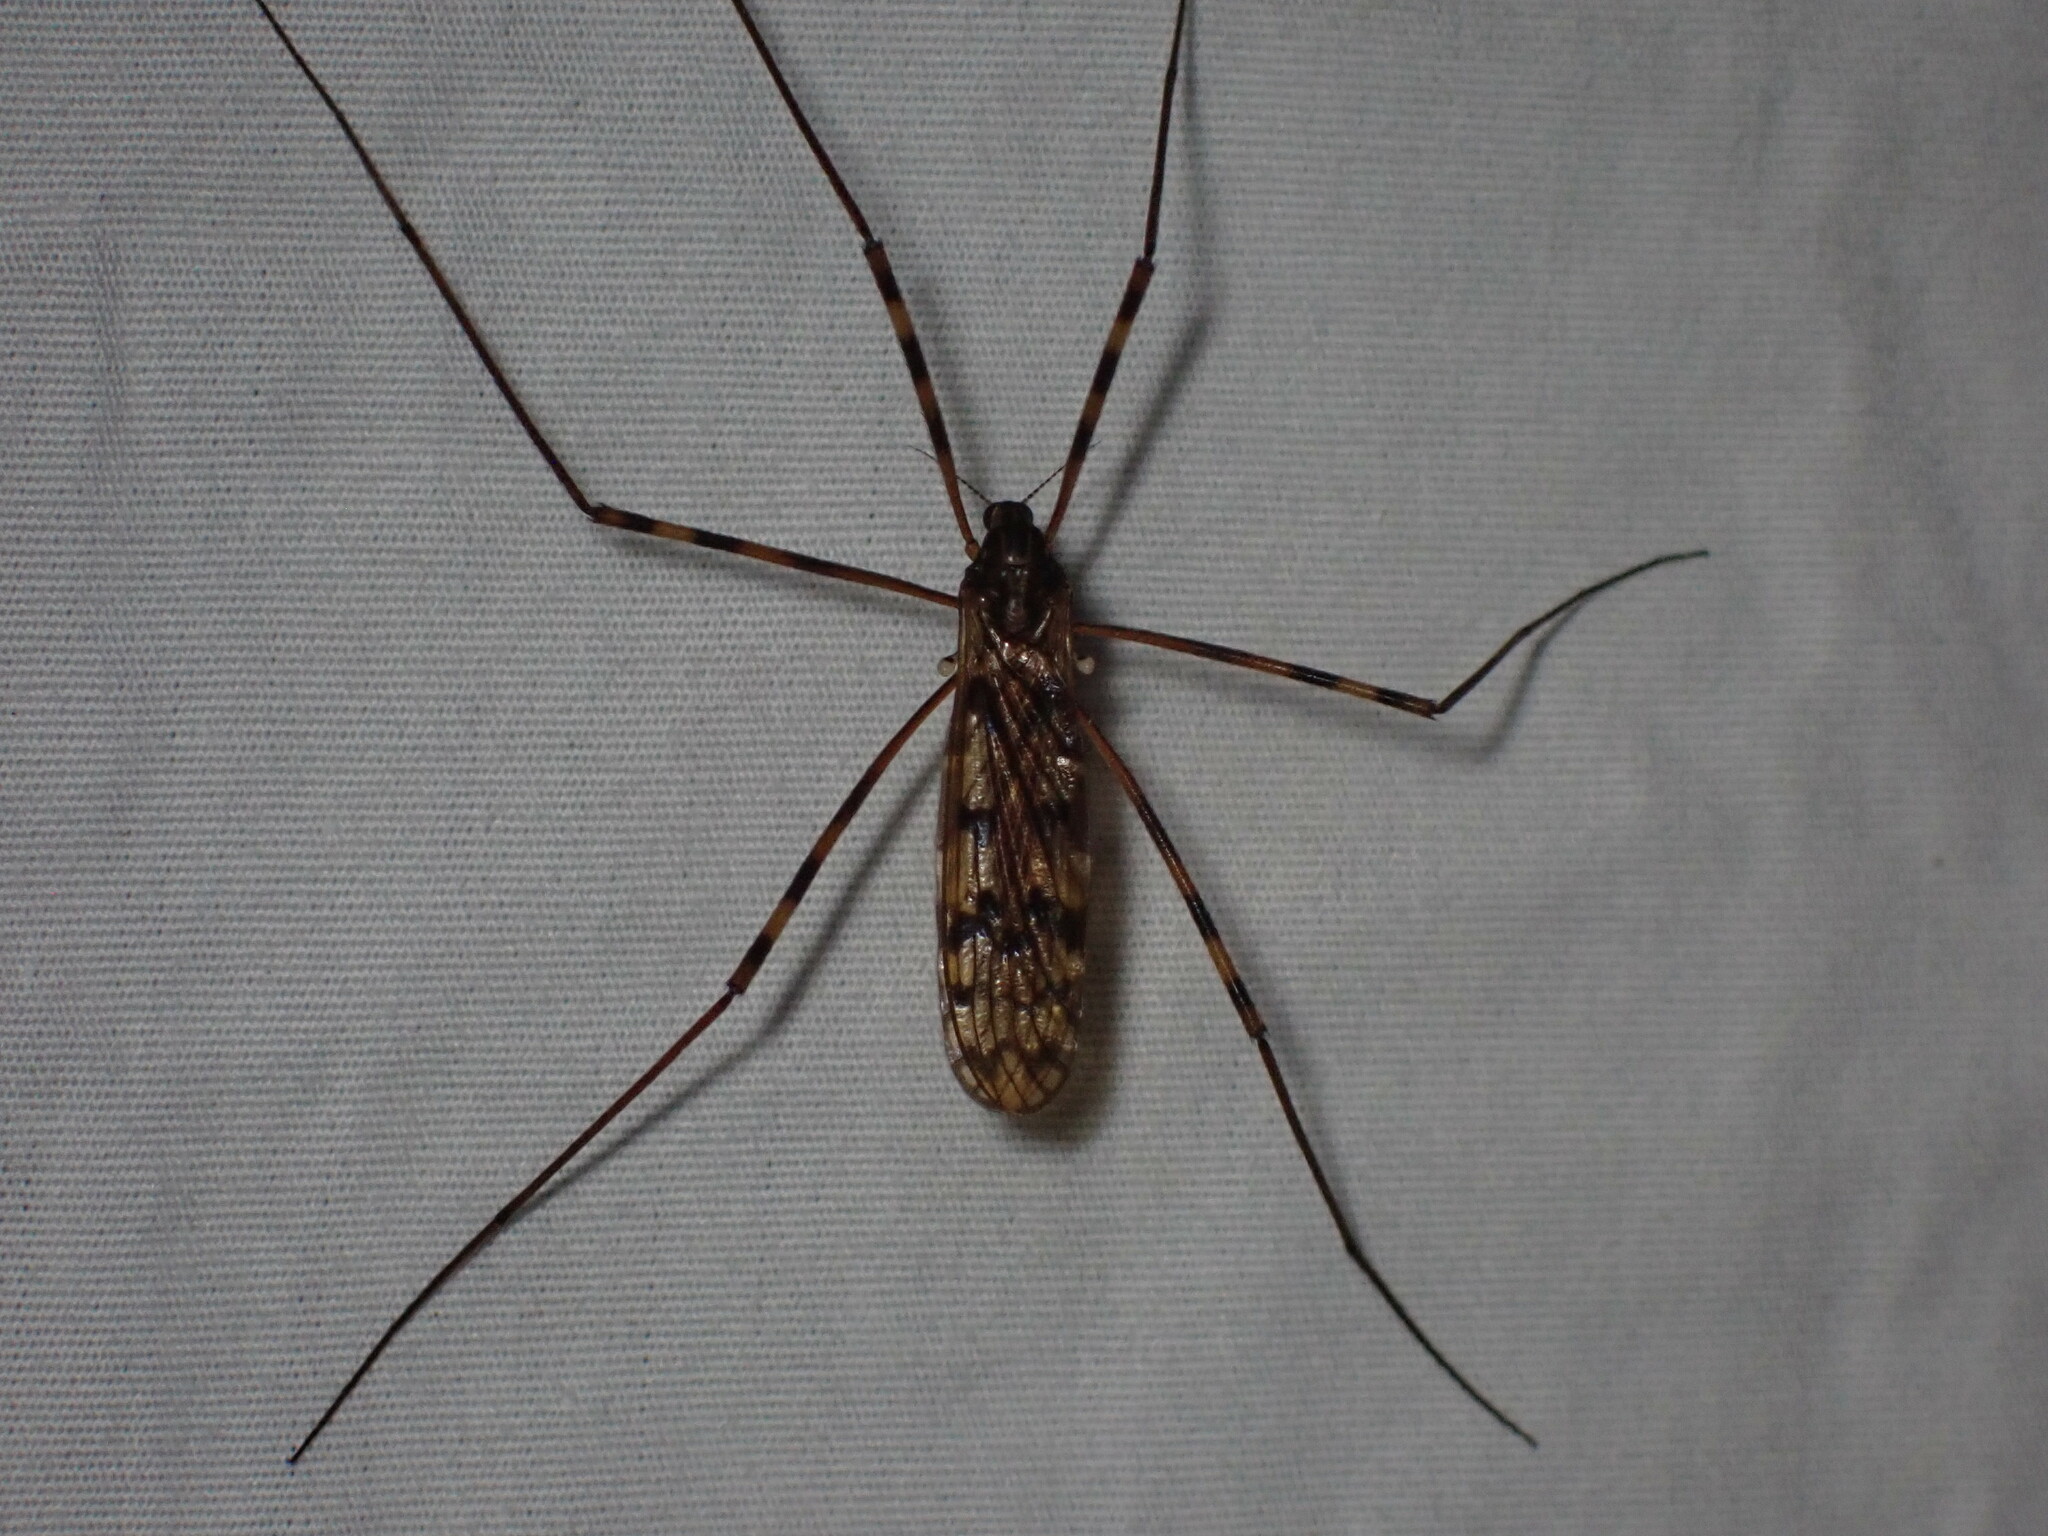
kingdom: Animalia
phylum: Arthropoda
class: Insecta
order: Diptera
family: Limoniidae
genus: Metalimnobia
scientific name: Metalimnobia immatura
